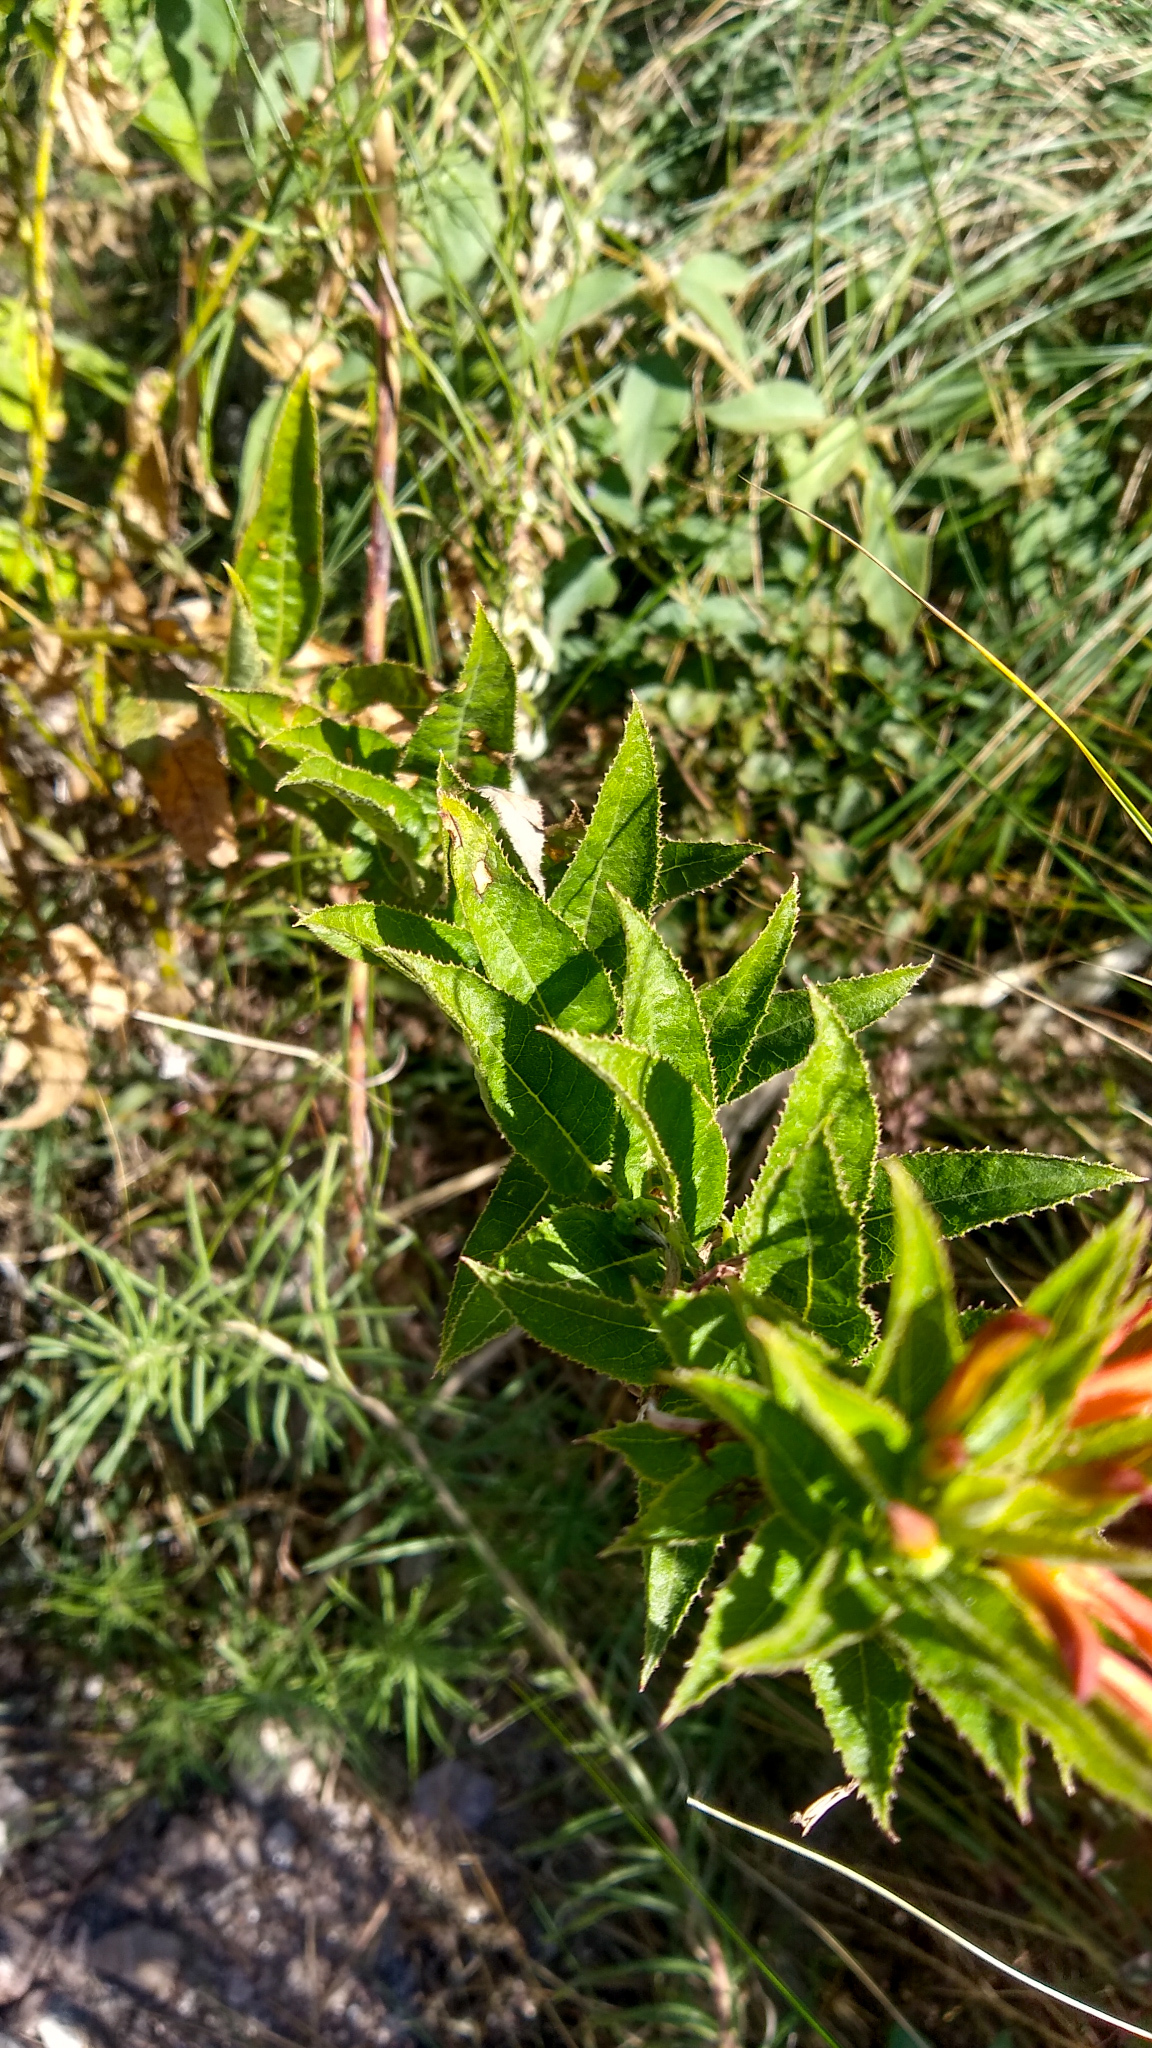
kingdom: Plantae
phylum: Tracheophyta
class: Magnoliopsida
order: Asterales
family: Campanulaceae
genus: Siphocampylus
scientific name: Siphocampylus foliosus
